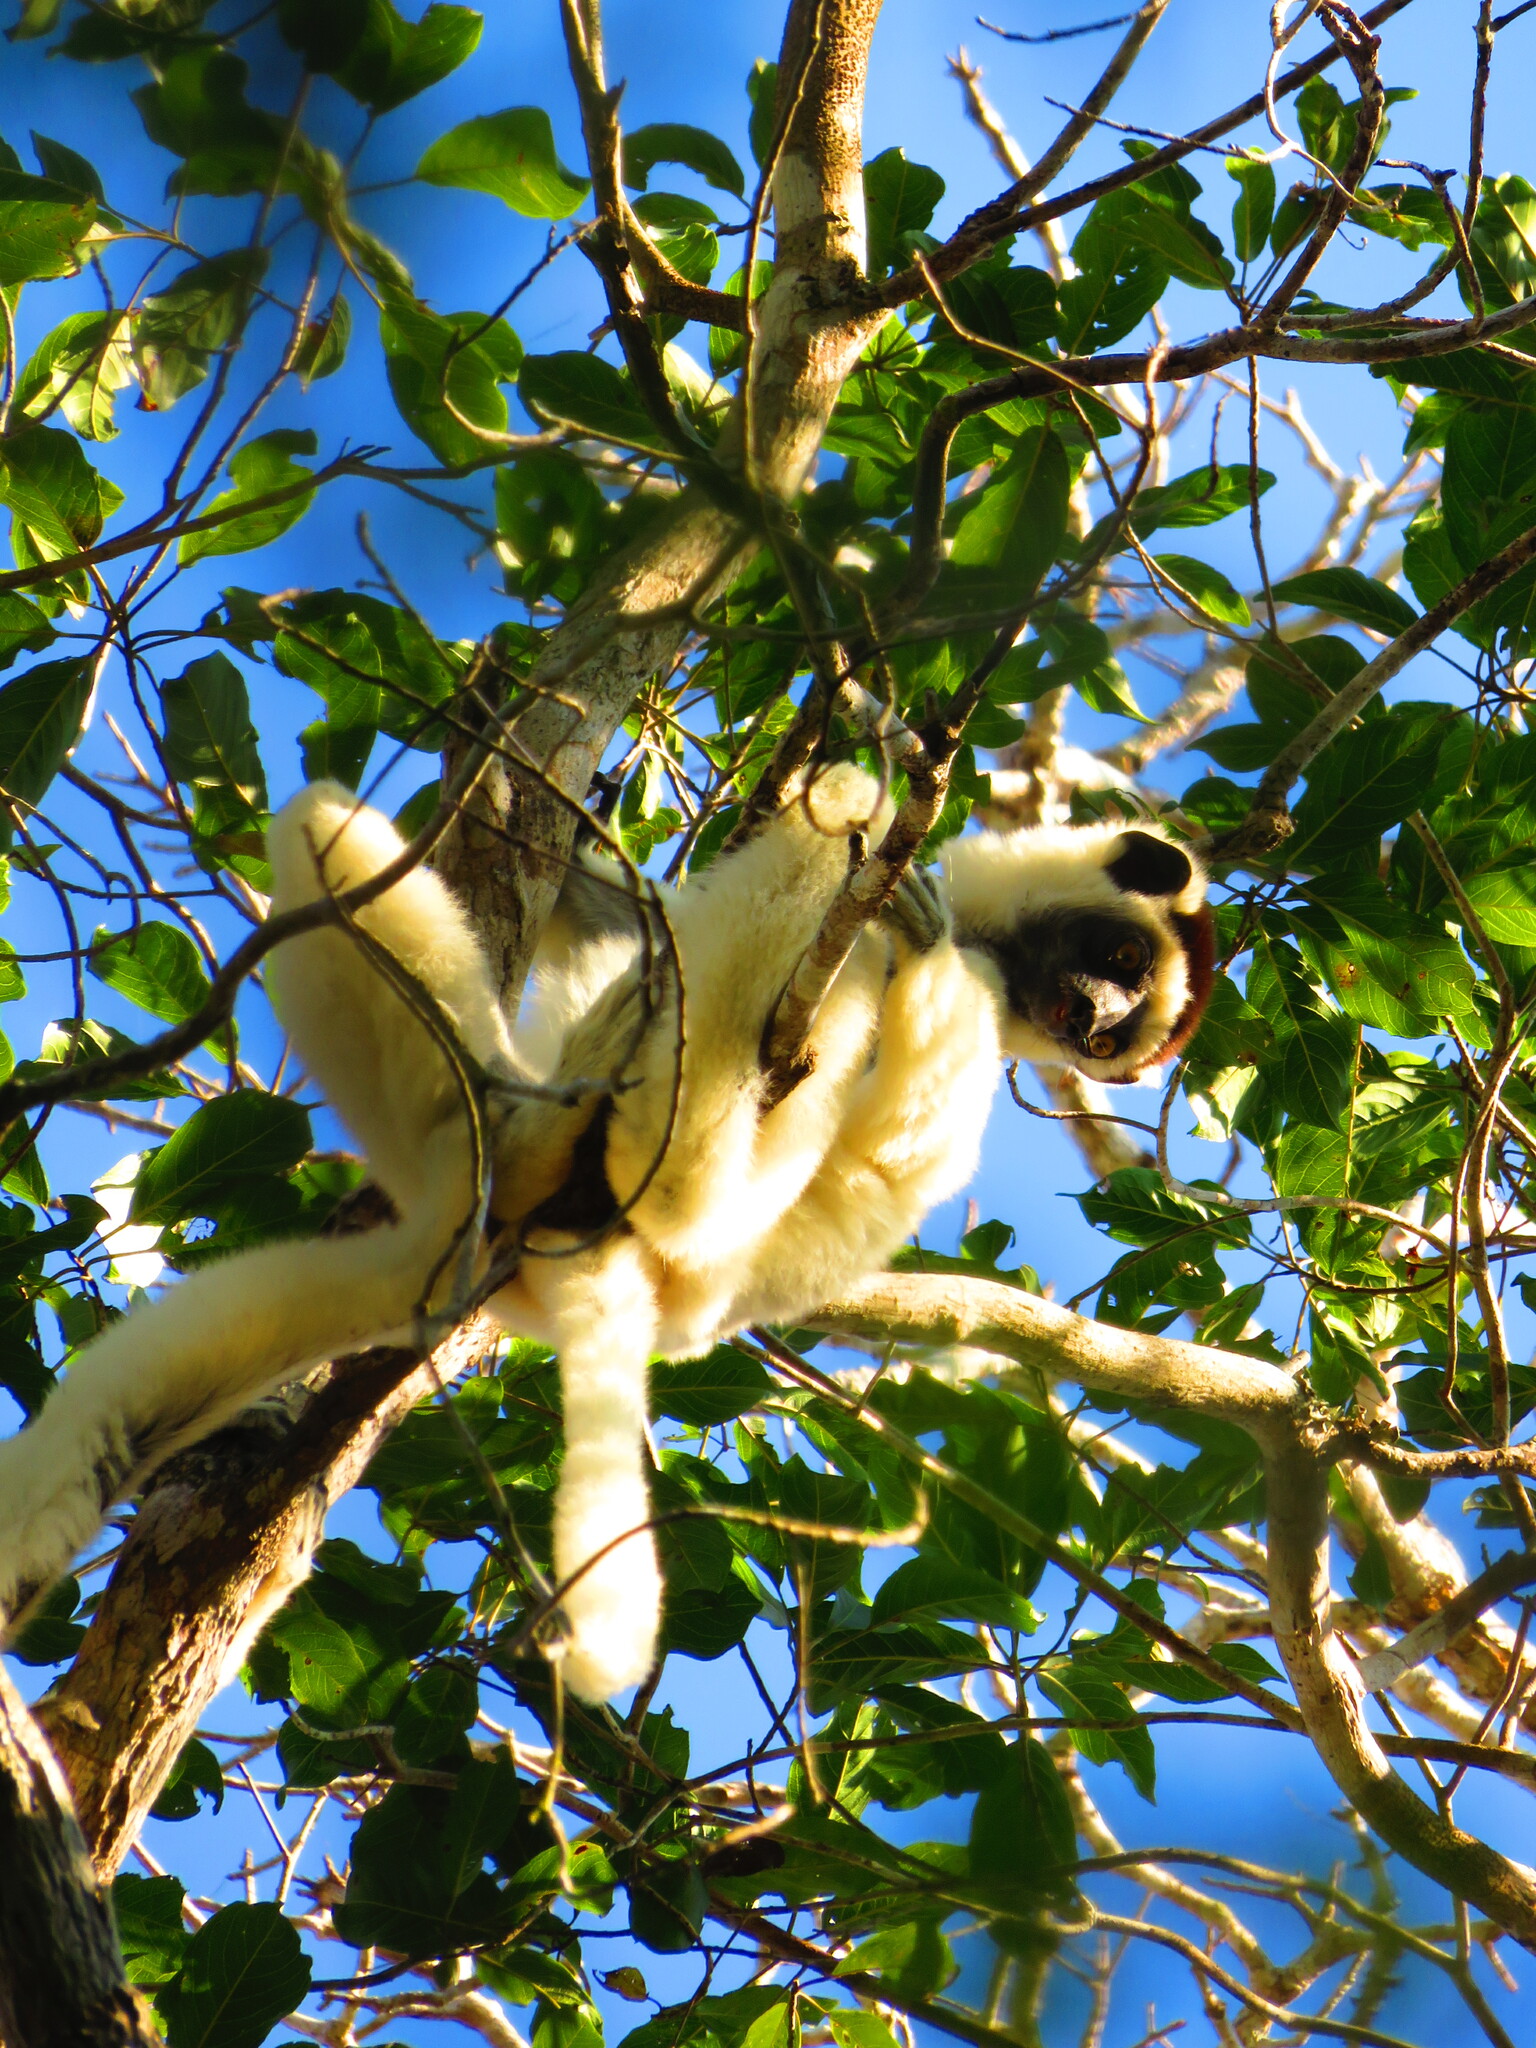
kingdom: Animalia
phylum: Chordata
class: Mammalia
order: Primates
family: Indriidae
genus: Propithecus
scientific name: Propithecus verreauxi
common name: Verreaux's sifaka
